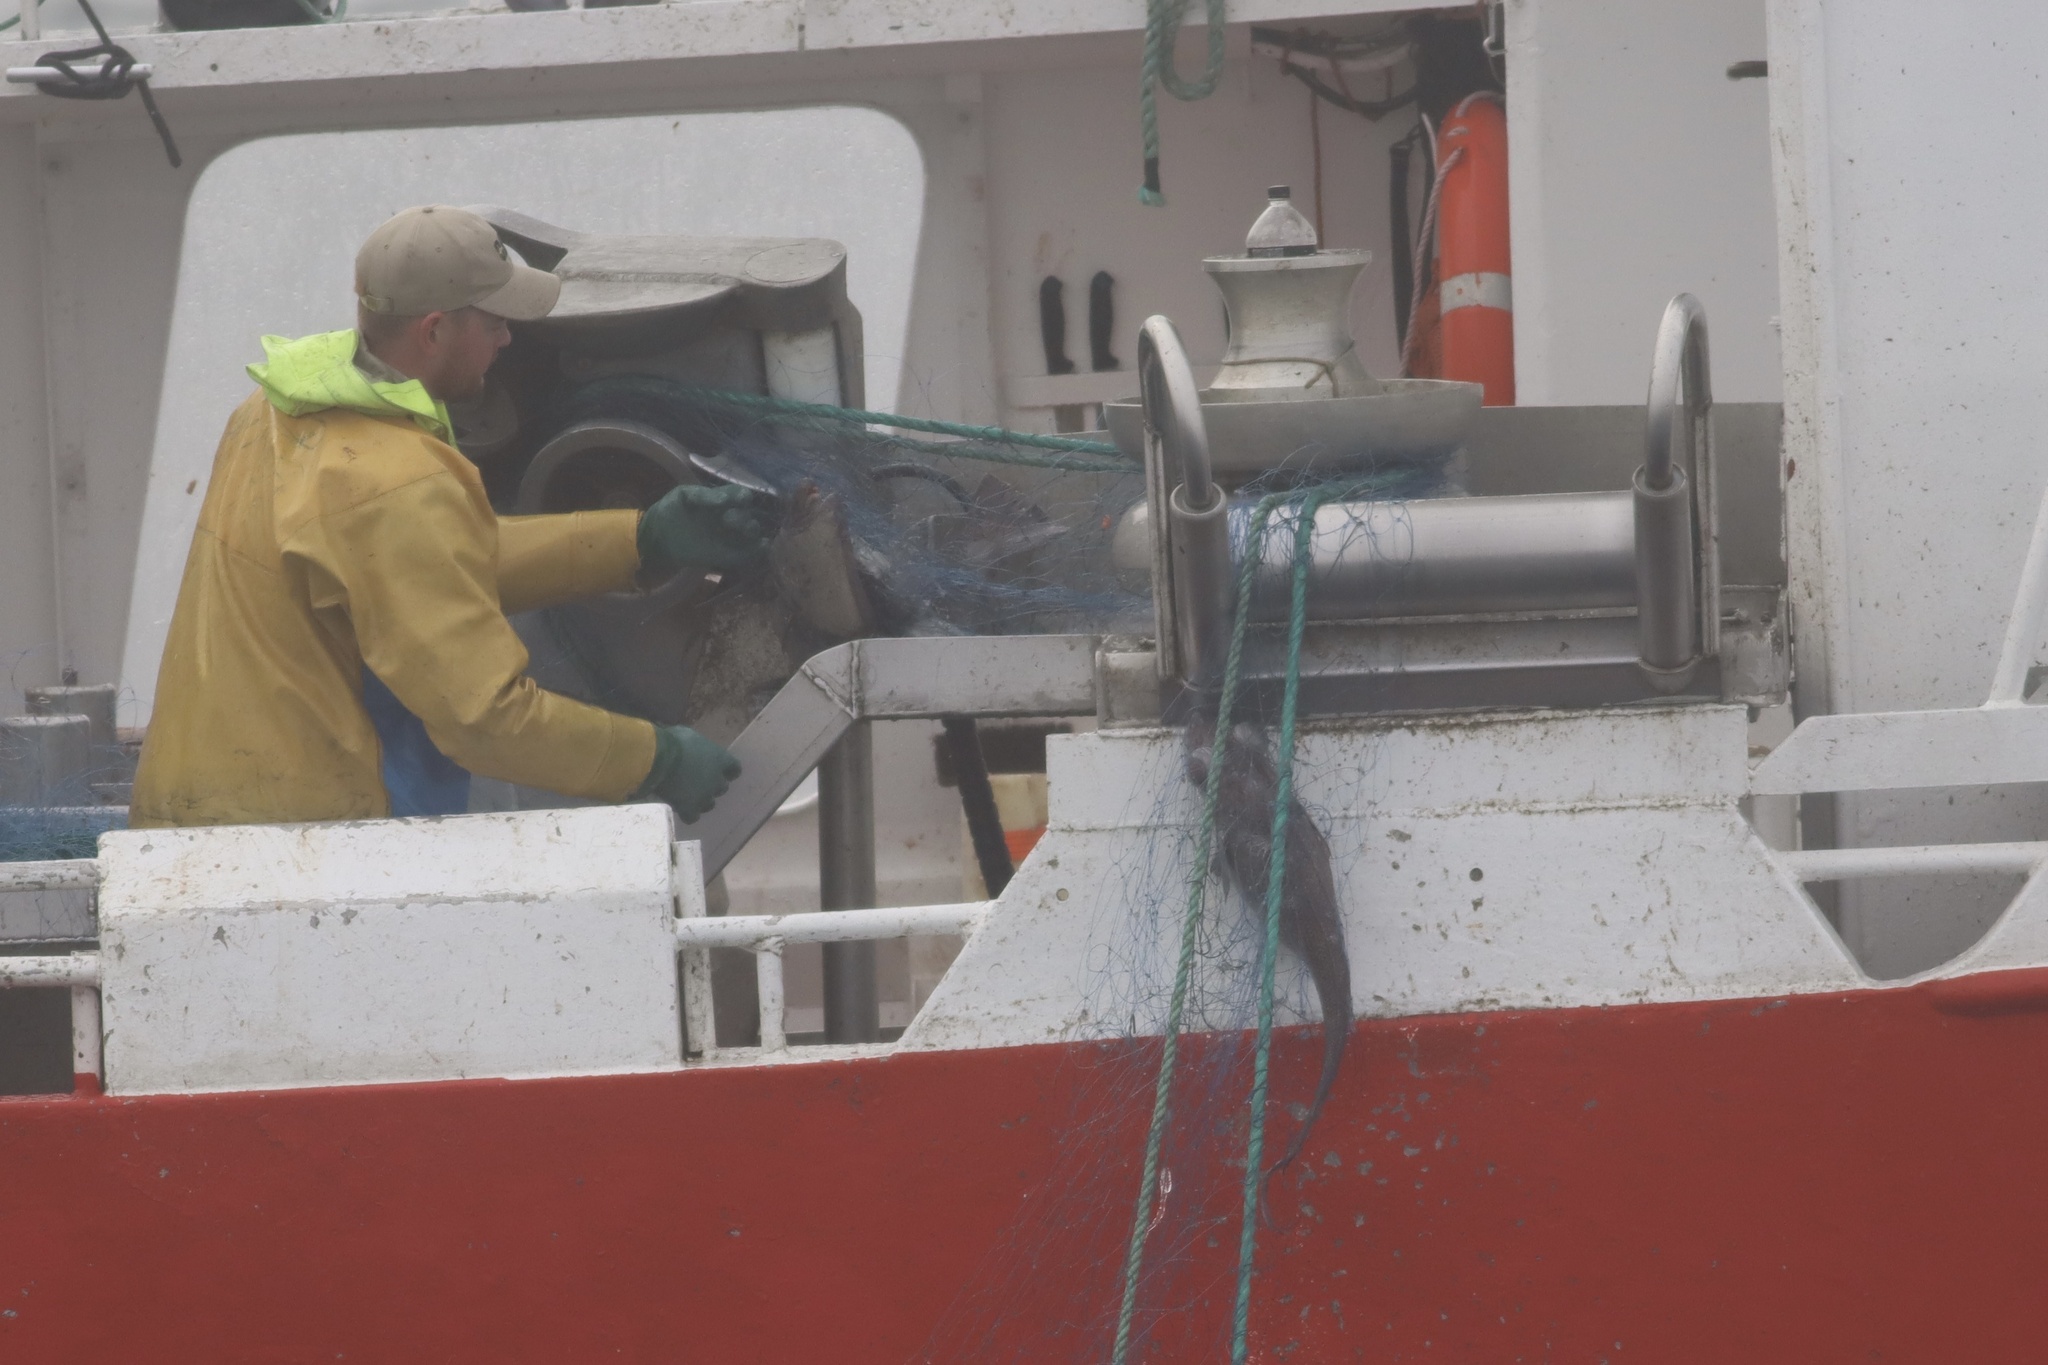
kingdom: Animalia
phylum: Chordata
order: Gadiformes
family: Macrouridae
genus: Macrourus
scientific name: Macrourus berglax
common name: Roughhead grenadier
